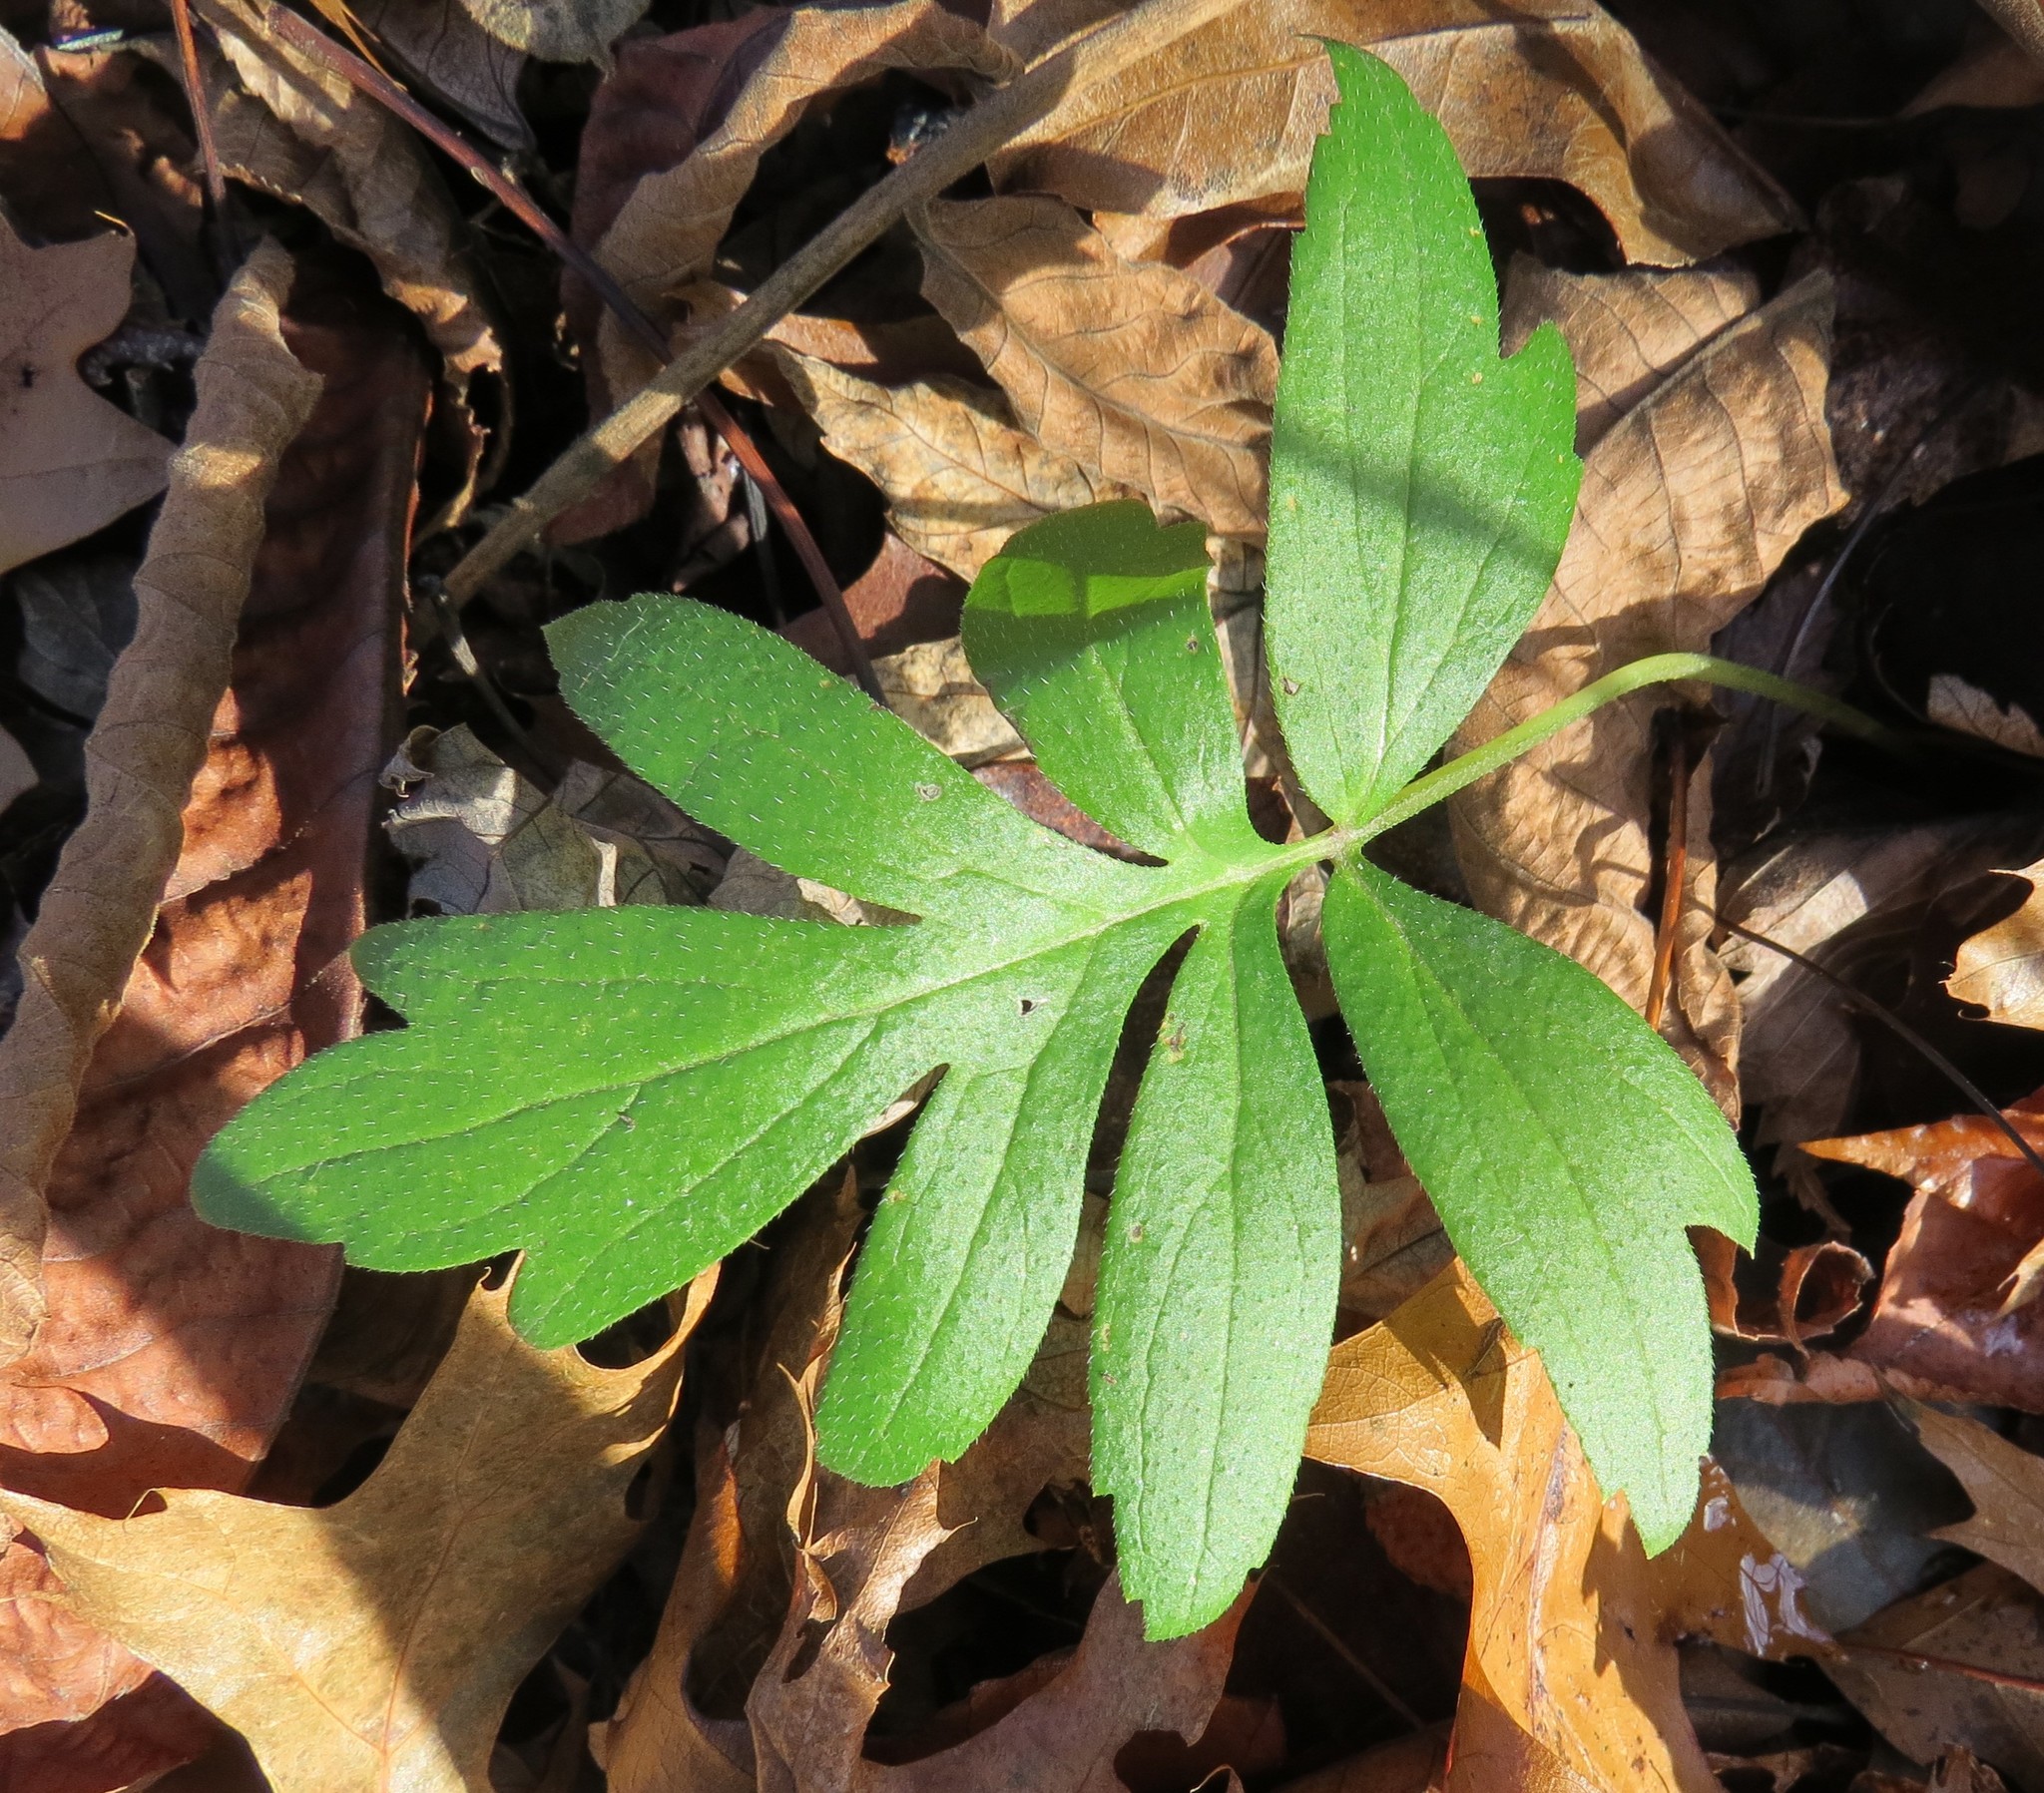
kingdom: Plantae
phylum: Tracheophyta
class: Magnoliopsida
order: Boraginales
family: Hydrophyllaceae
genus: Hydrophyllum
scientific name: Hydrophyllum virginianum
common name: Virginia waterleaf
